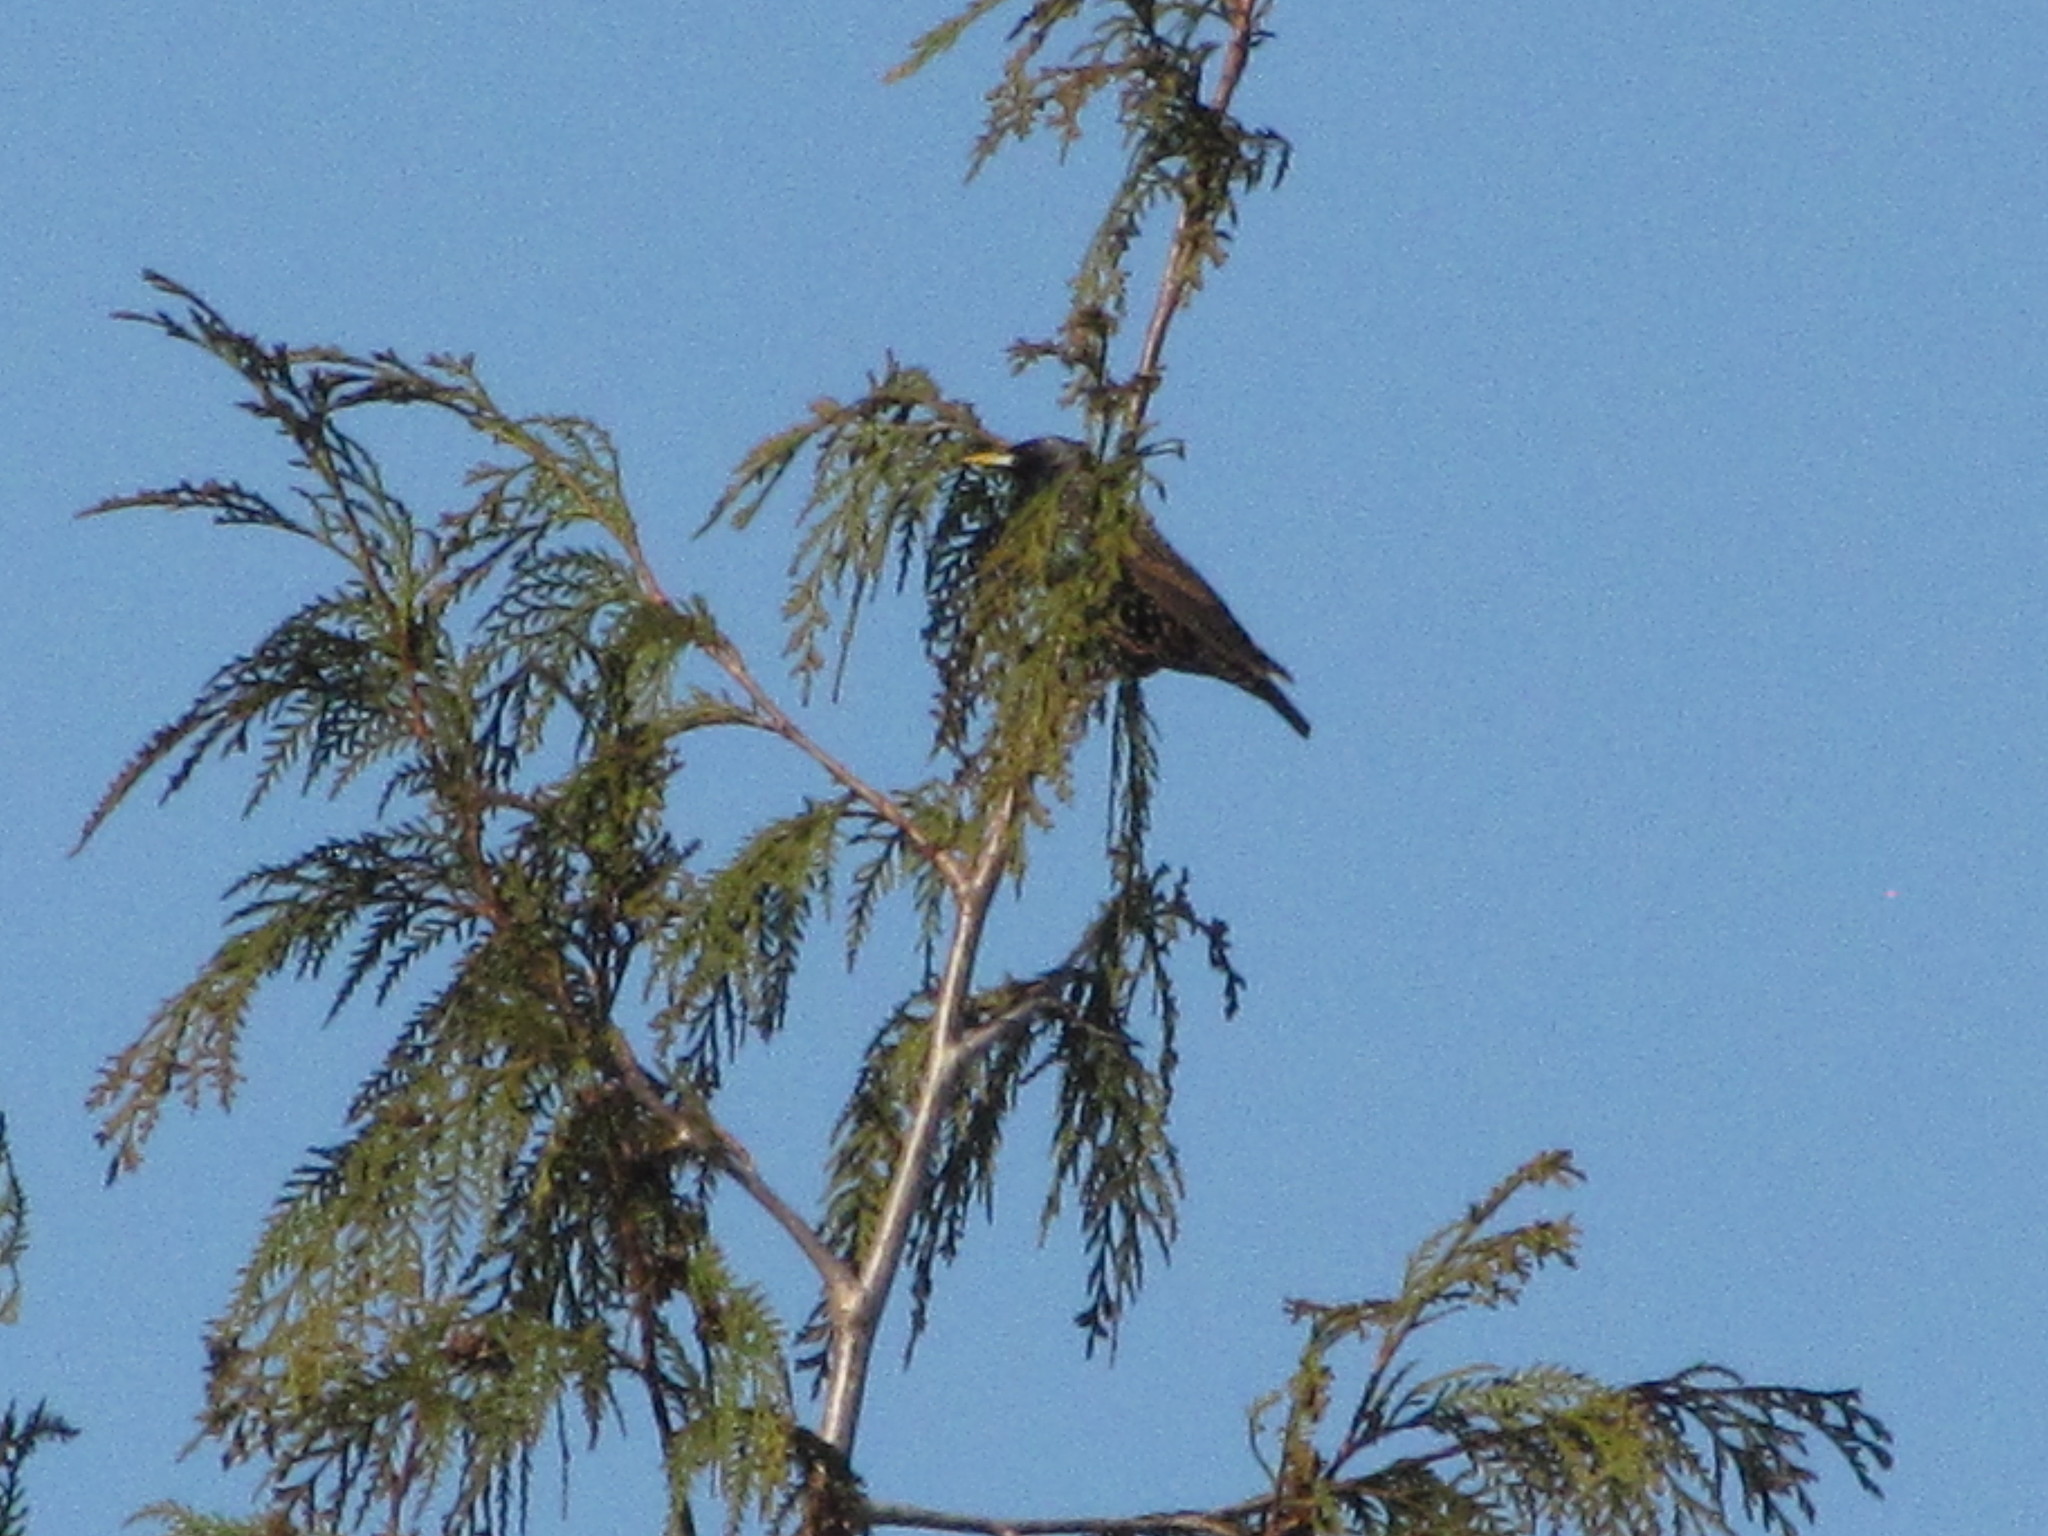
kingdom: Animalia
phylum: Chordata
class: Aves
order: Passeriformes
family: Sturnidae
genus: Sturnus
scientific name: Sturnus vulgaris
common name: Common starling
